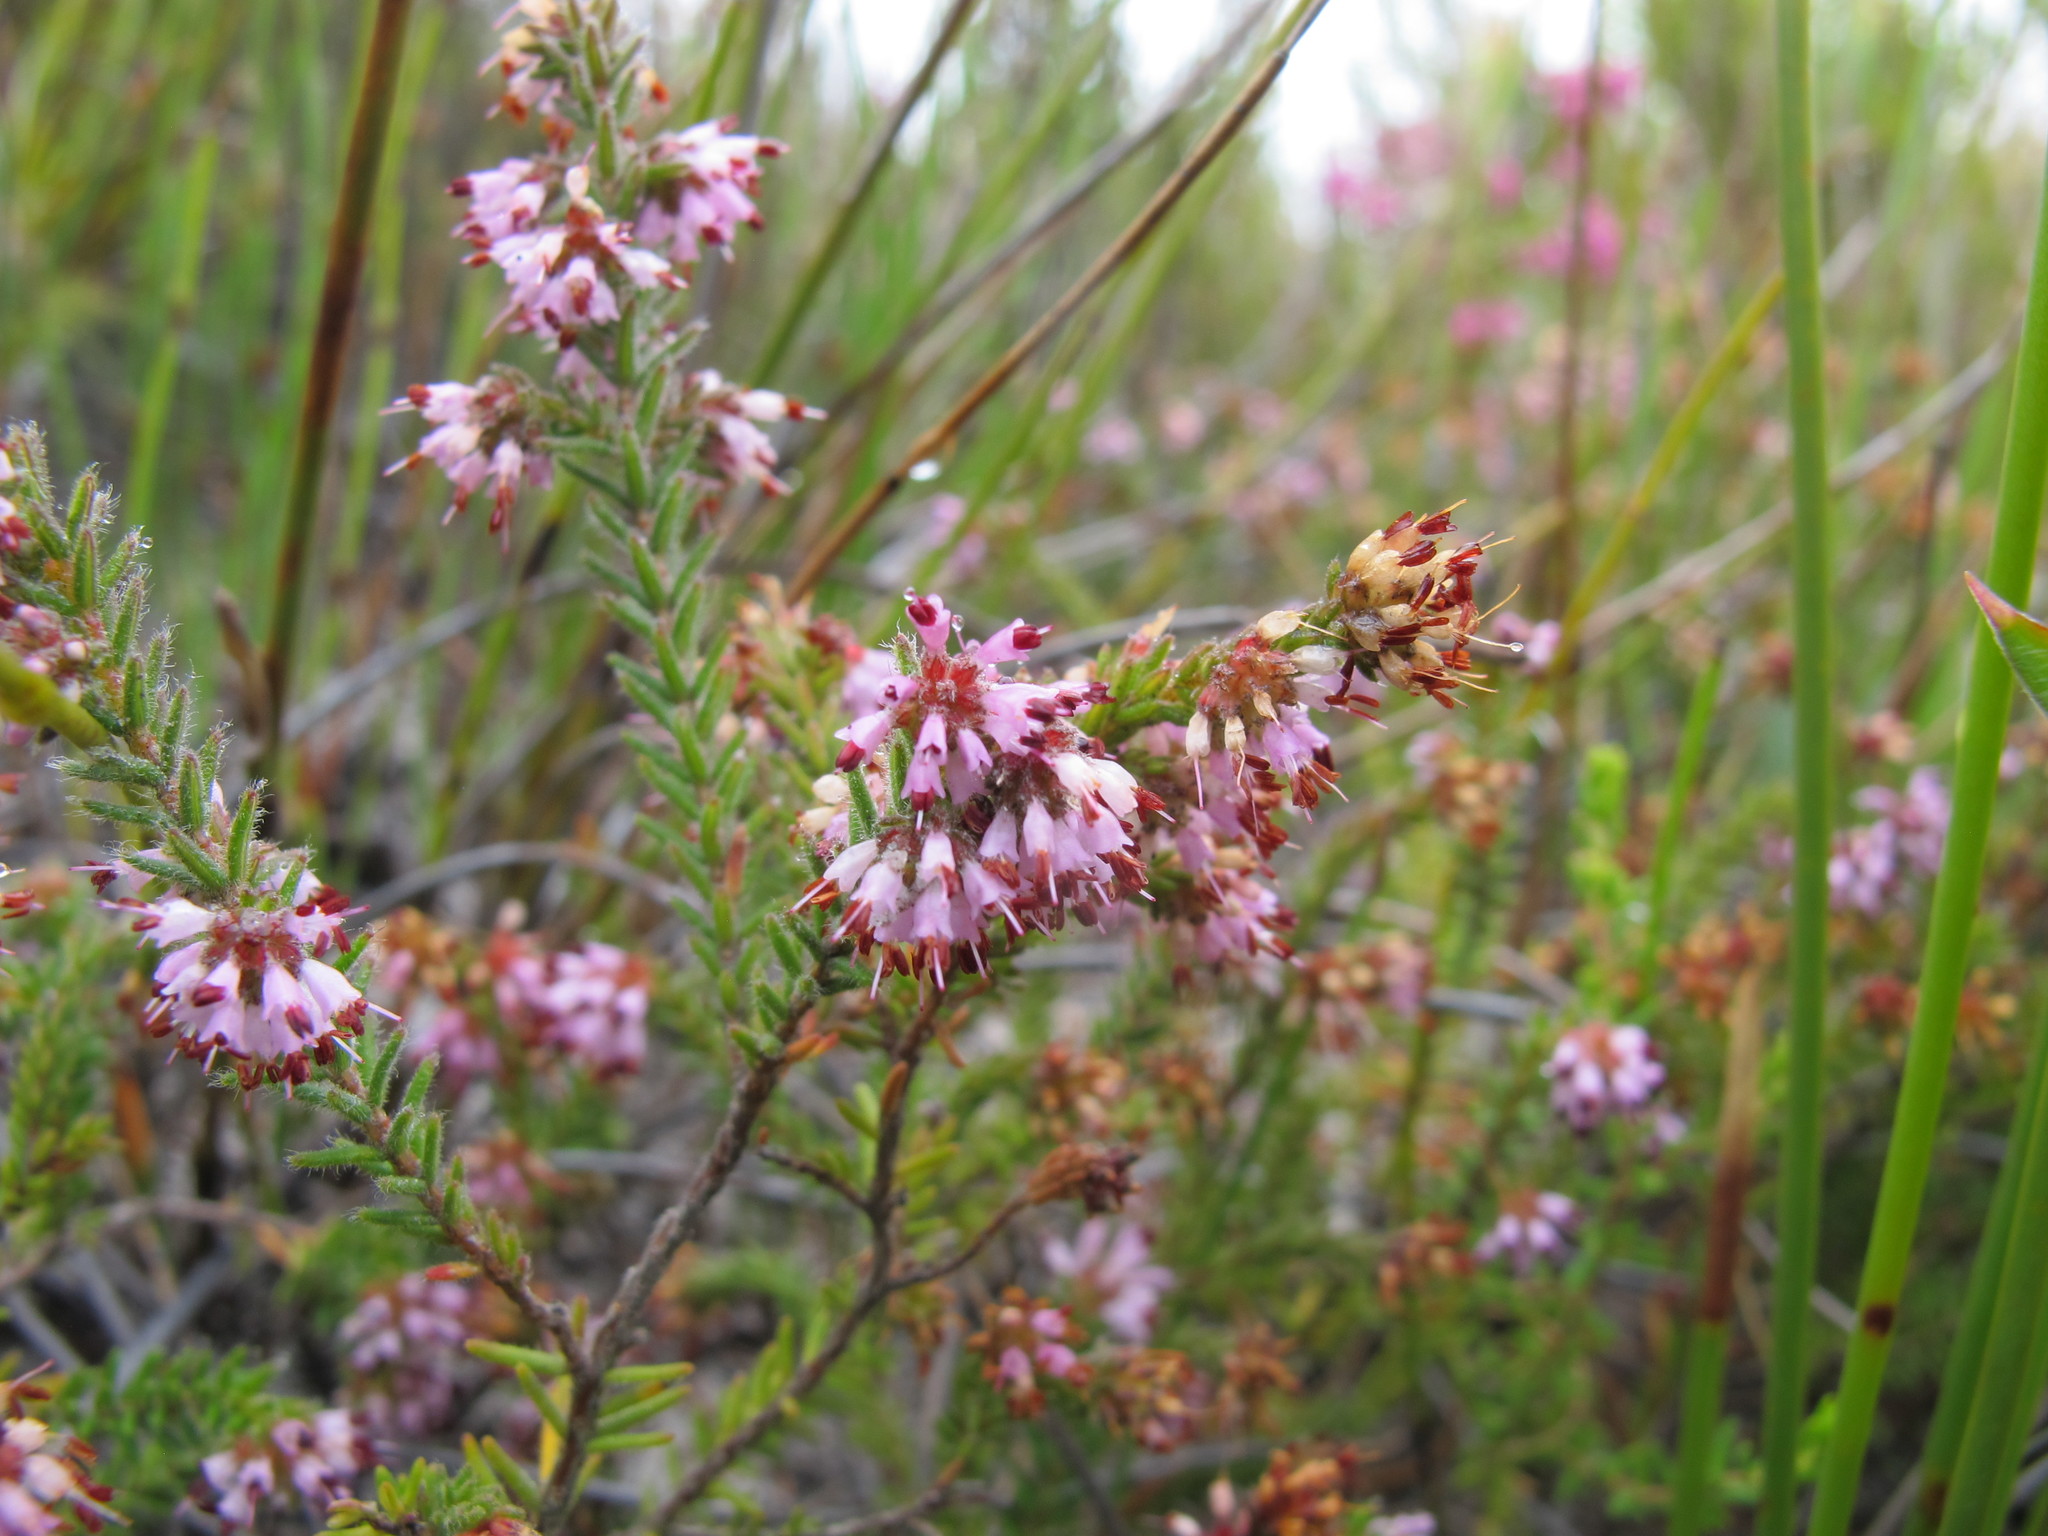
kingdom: Plantae
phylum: Tracheophyta
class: Magnoliopsida
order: Ericales
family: Ericaceae
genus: Erica
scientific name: Erica ericoides
